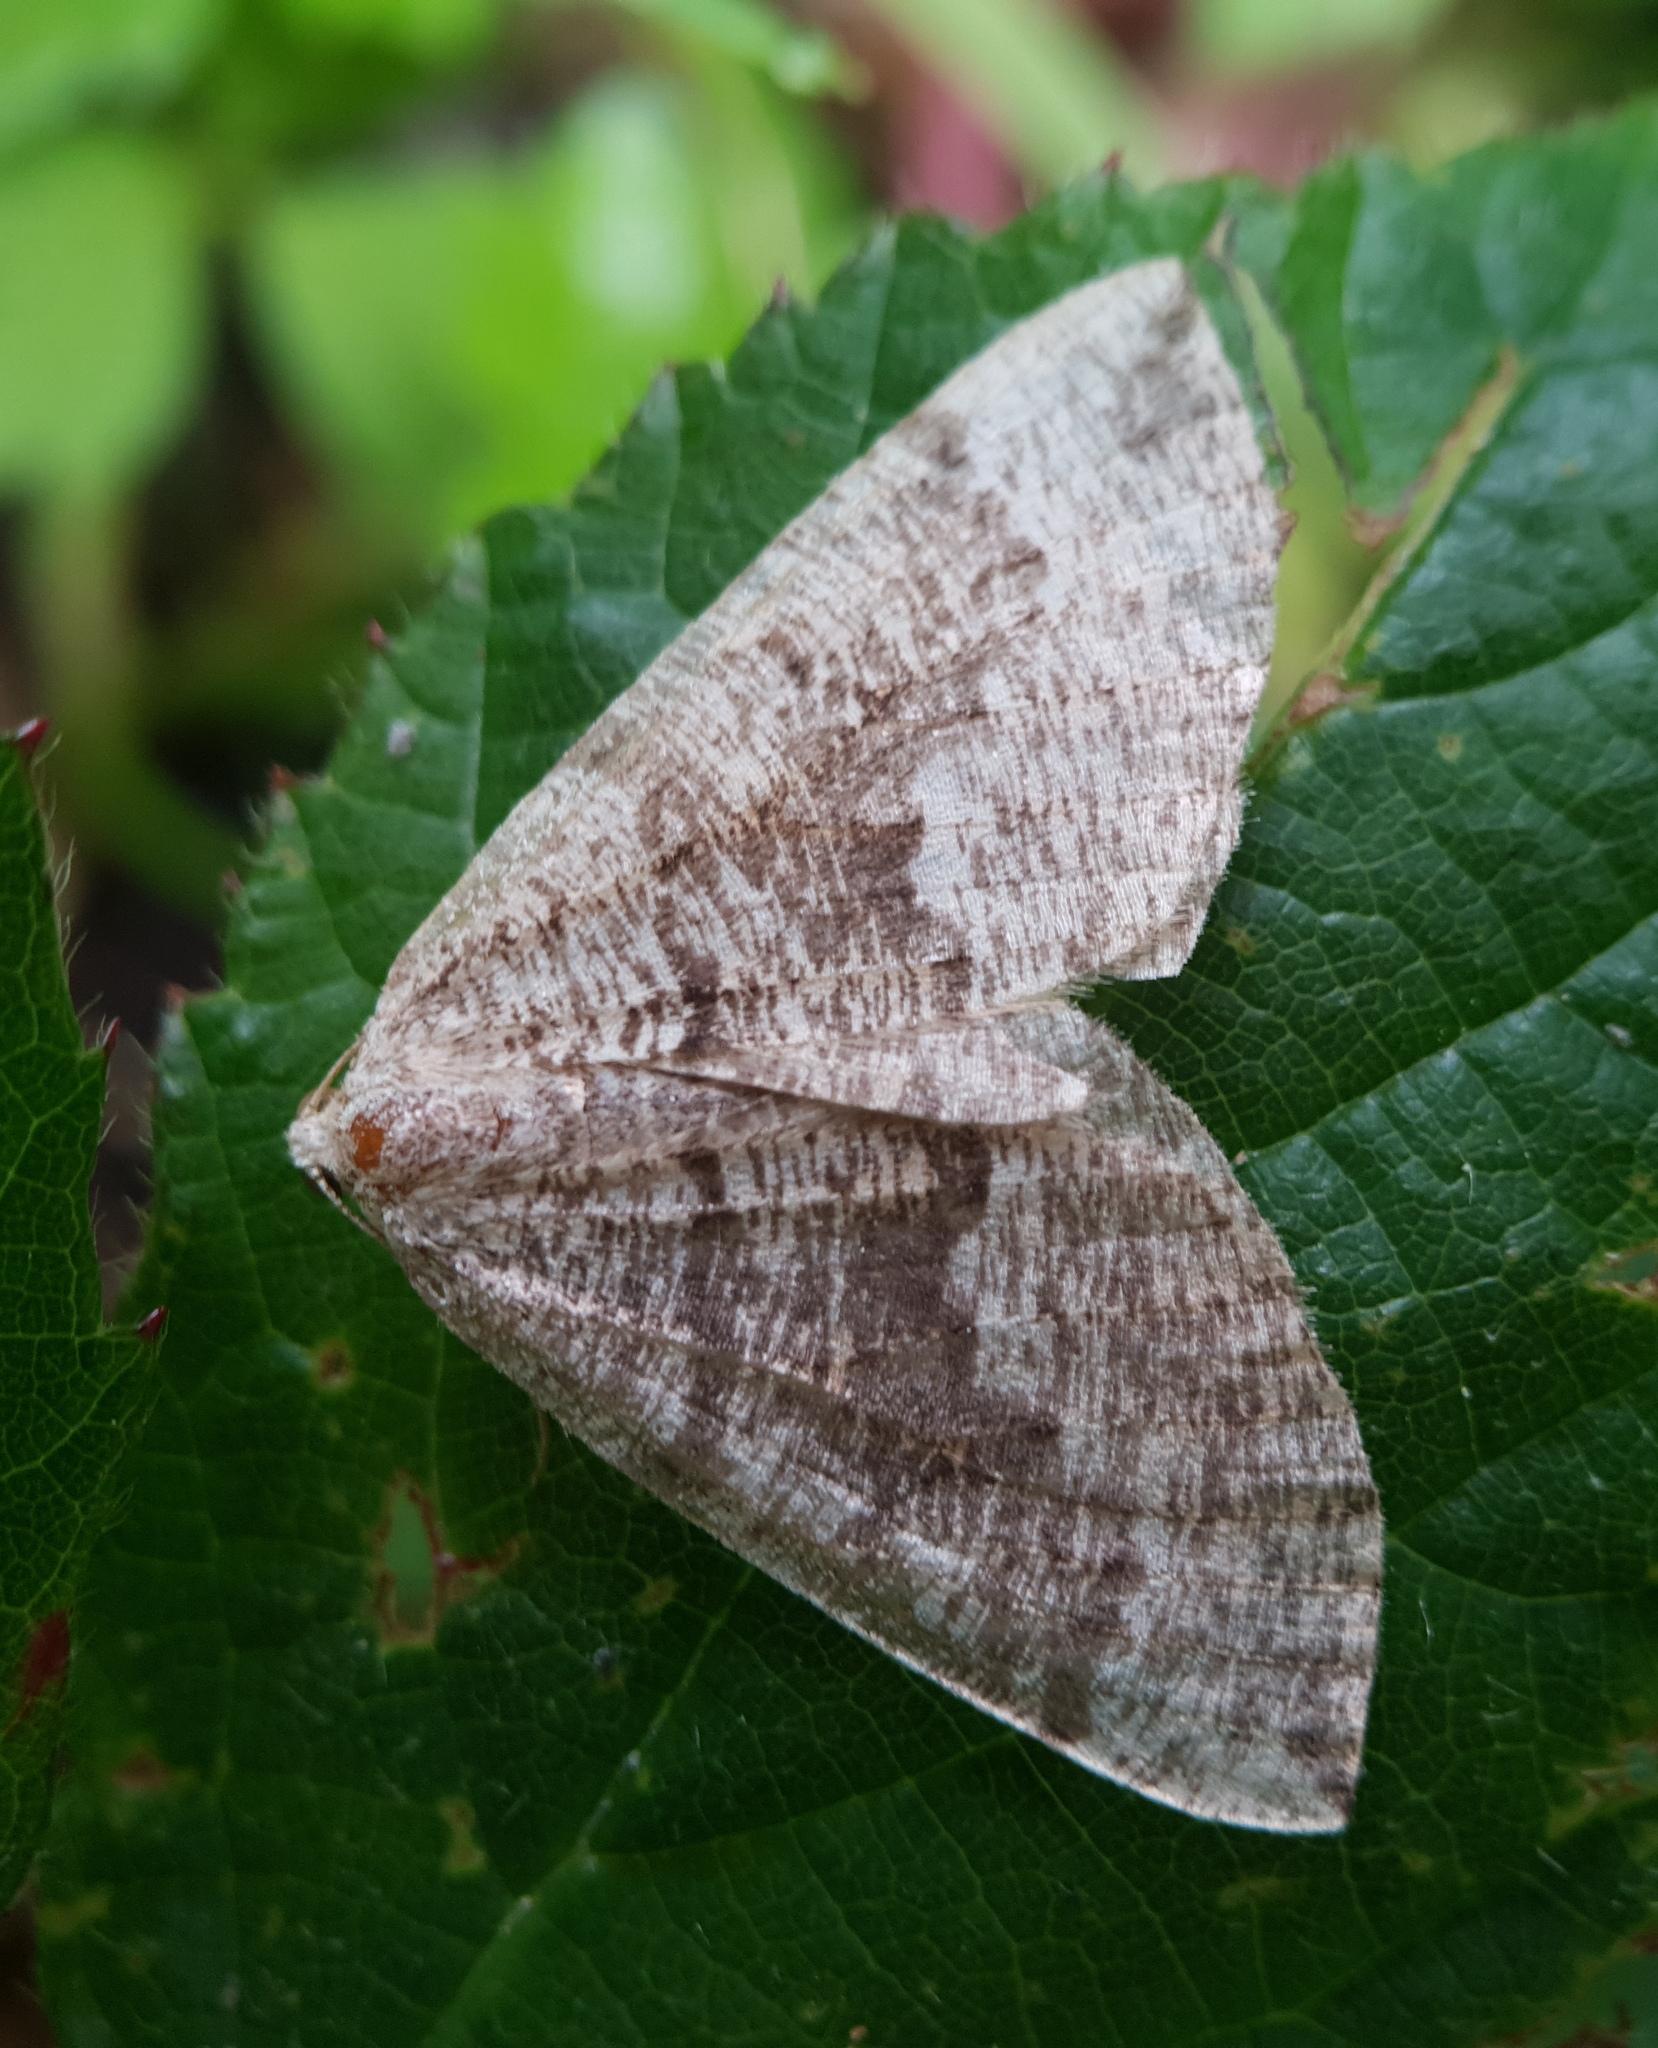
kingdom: Animalia
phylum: Arthropoda
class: Insecta
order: Lepidoptera
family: Geometridae
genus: Pungeleria
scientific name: Pungeleria capreolaria
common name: Banded pine carpet
